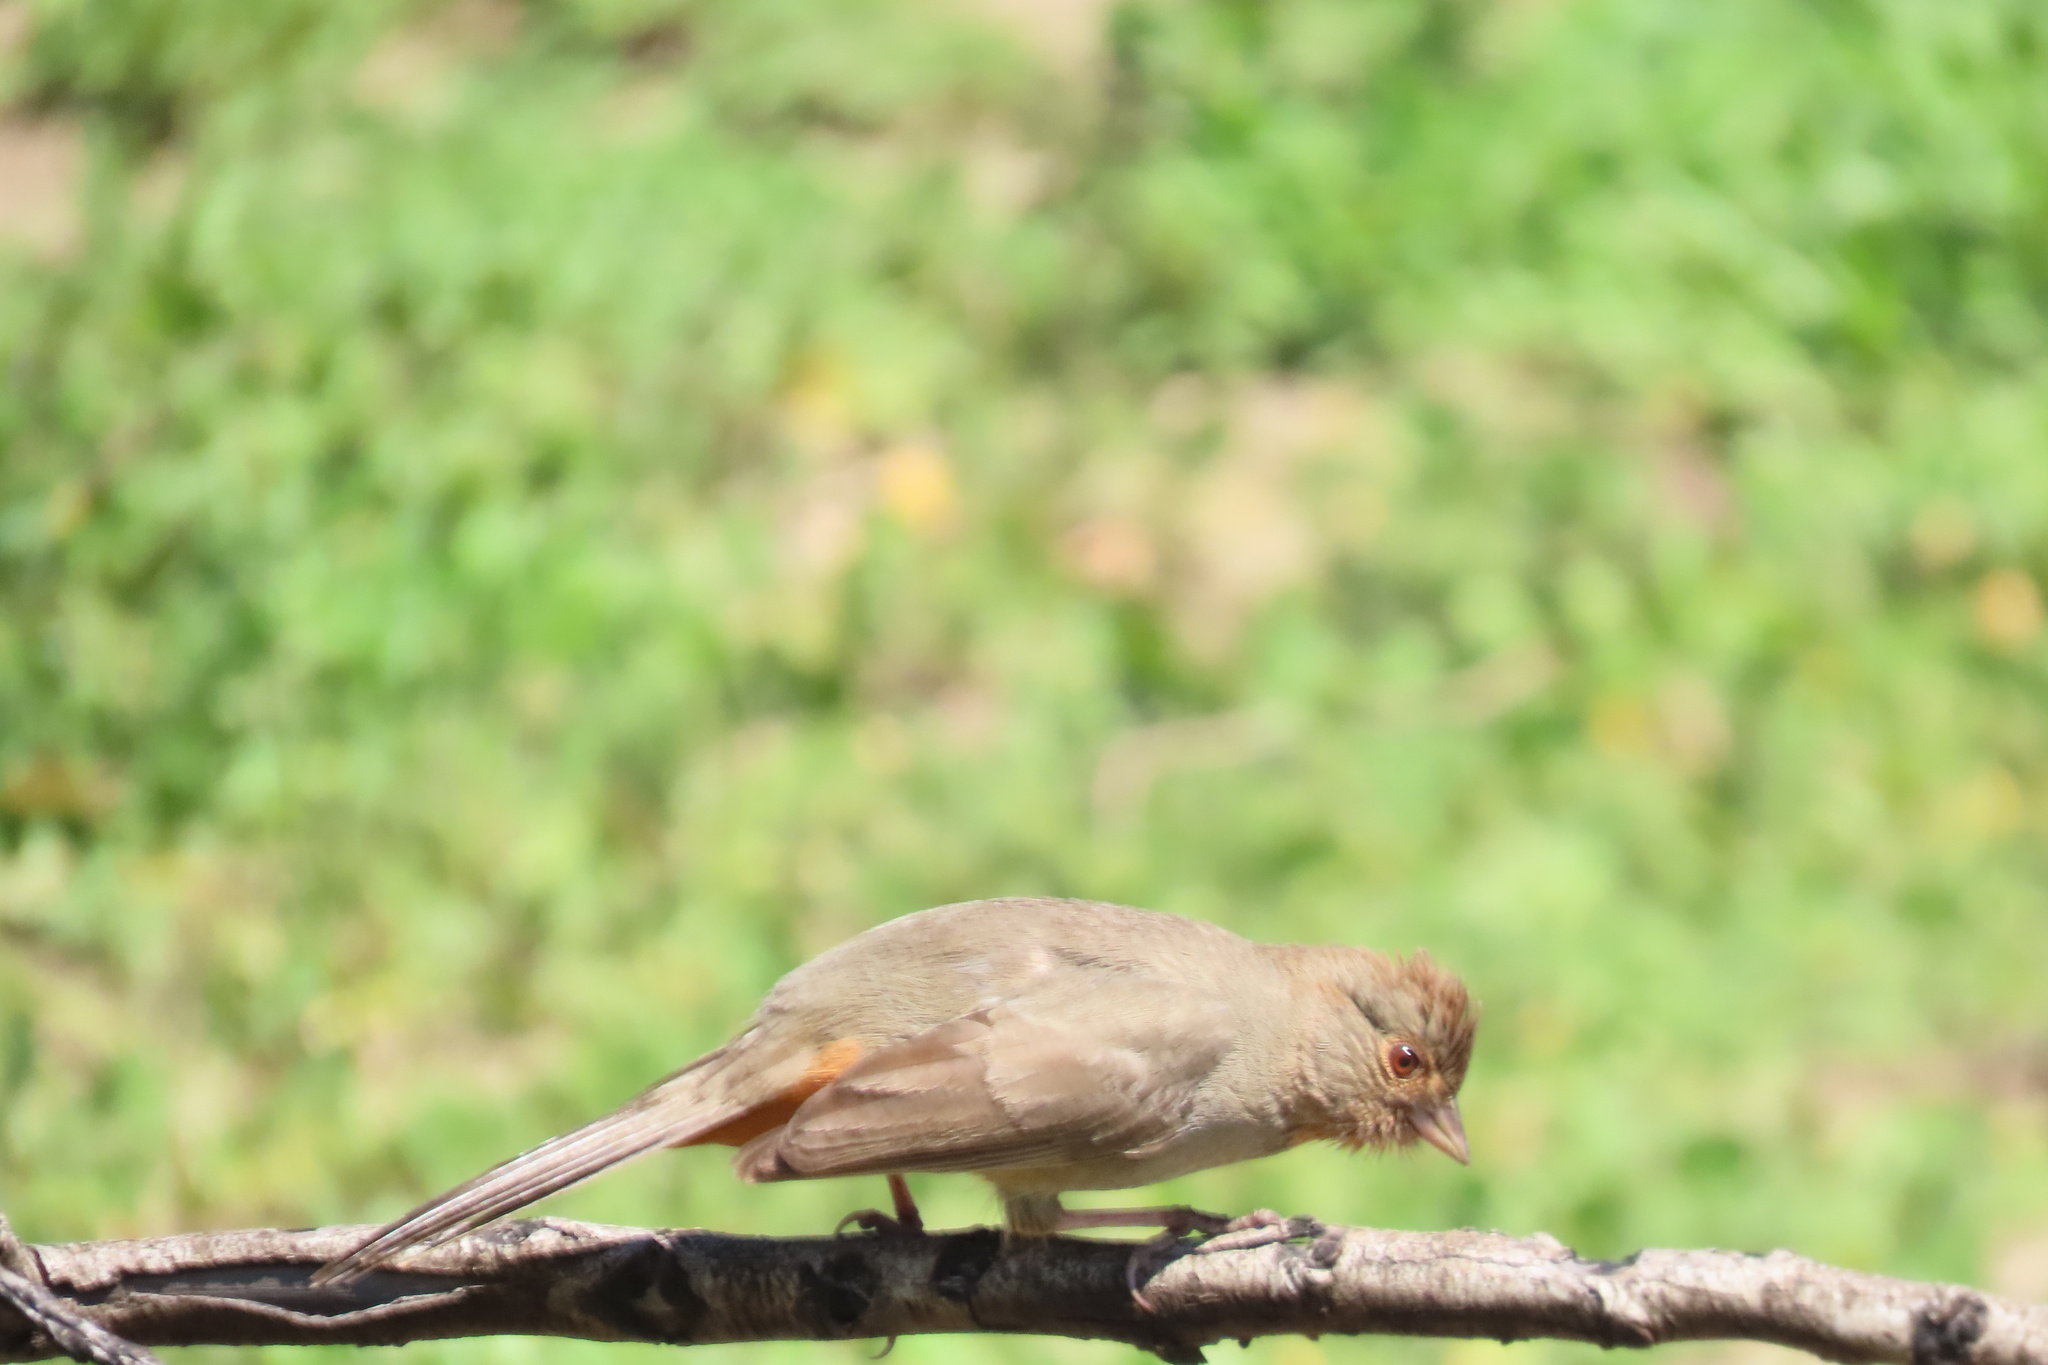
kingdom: Animalia
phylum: Chordata
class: Aves
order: Passeriformes
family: Passerellidae
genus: Melozone
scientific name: Melozone crissalis
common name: California towhee
